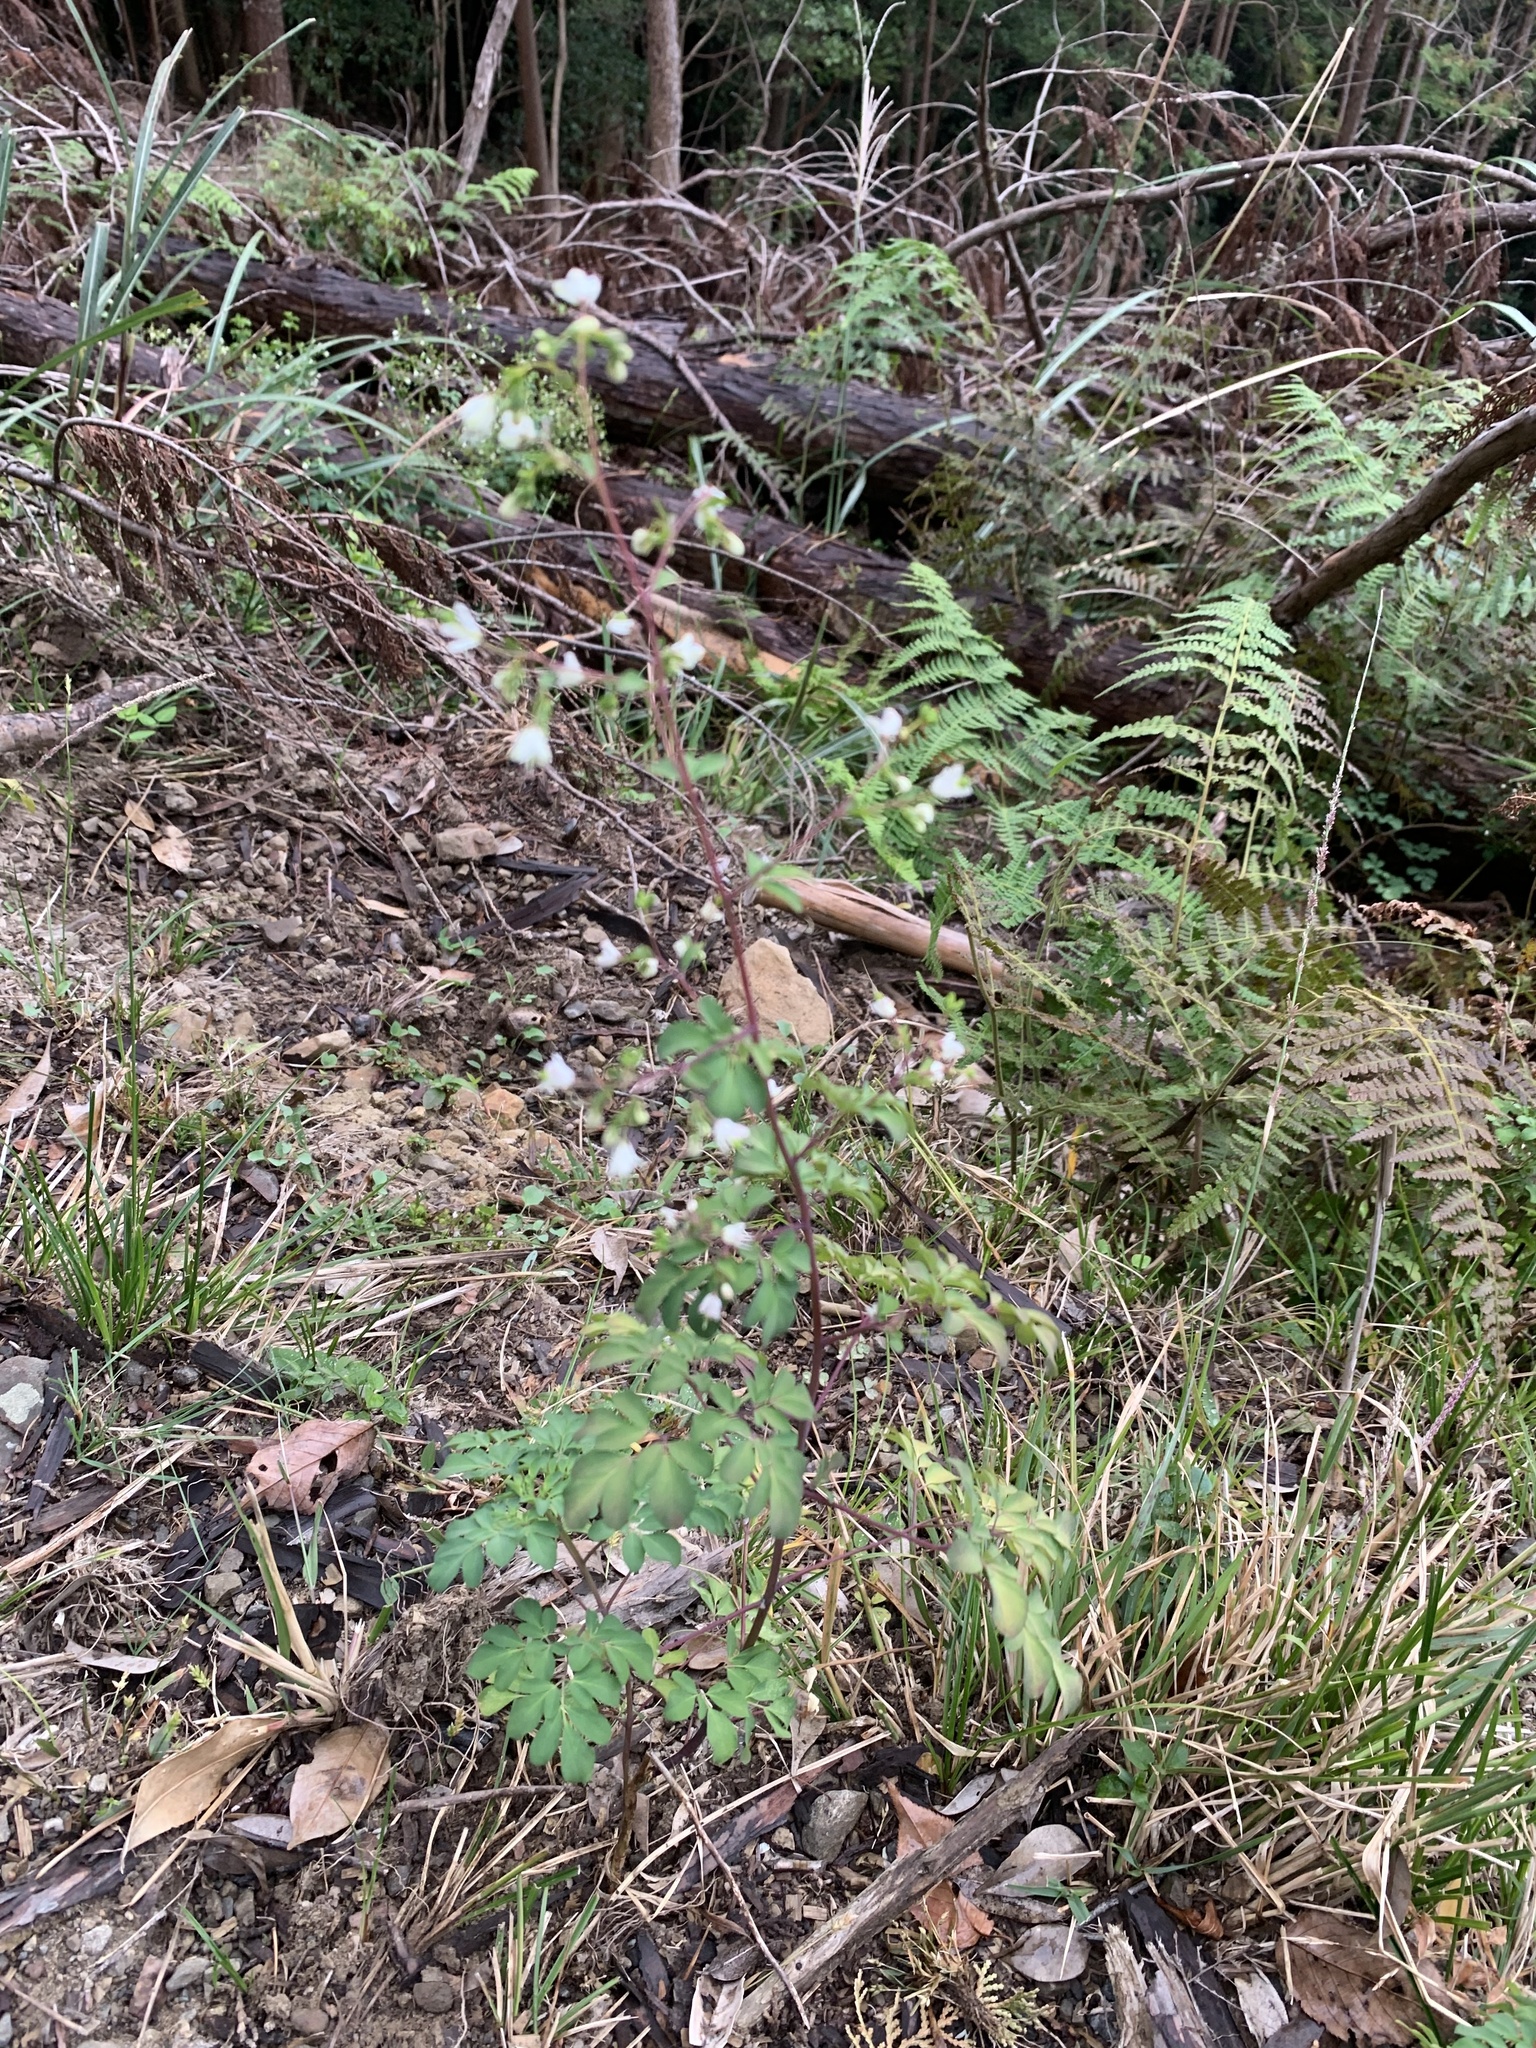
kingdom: Plantae
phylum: Tracheophyta
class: Magnoliopsida
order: Sapindales
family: Rutaceae
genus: Boenninghausenia
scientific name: Boenninghausenia albiflora
